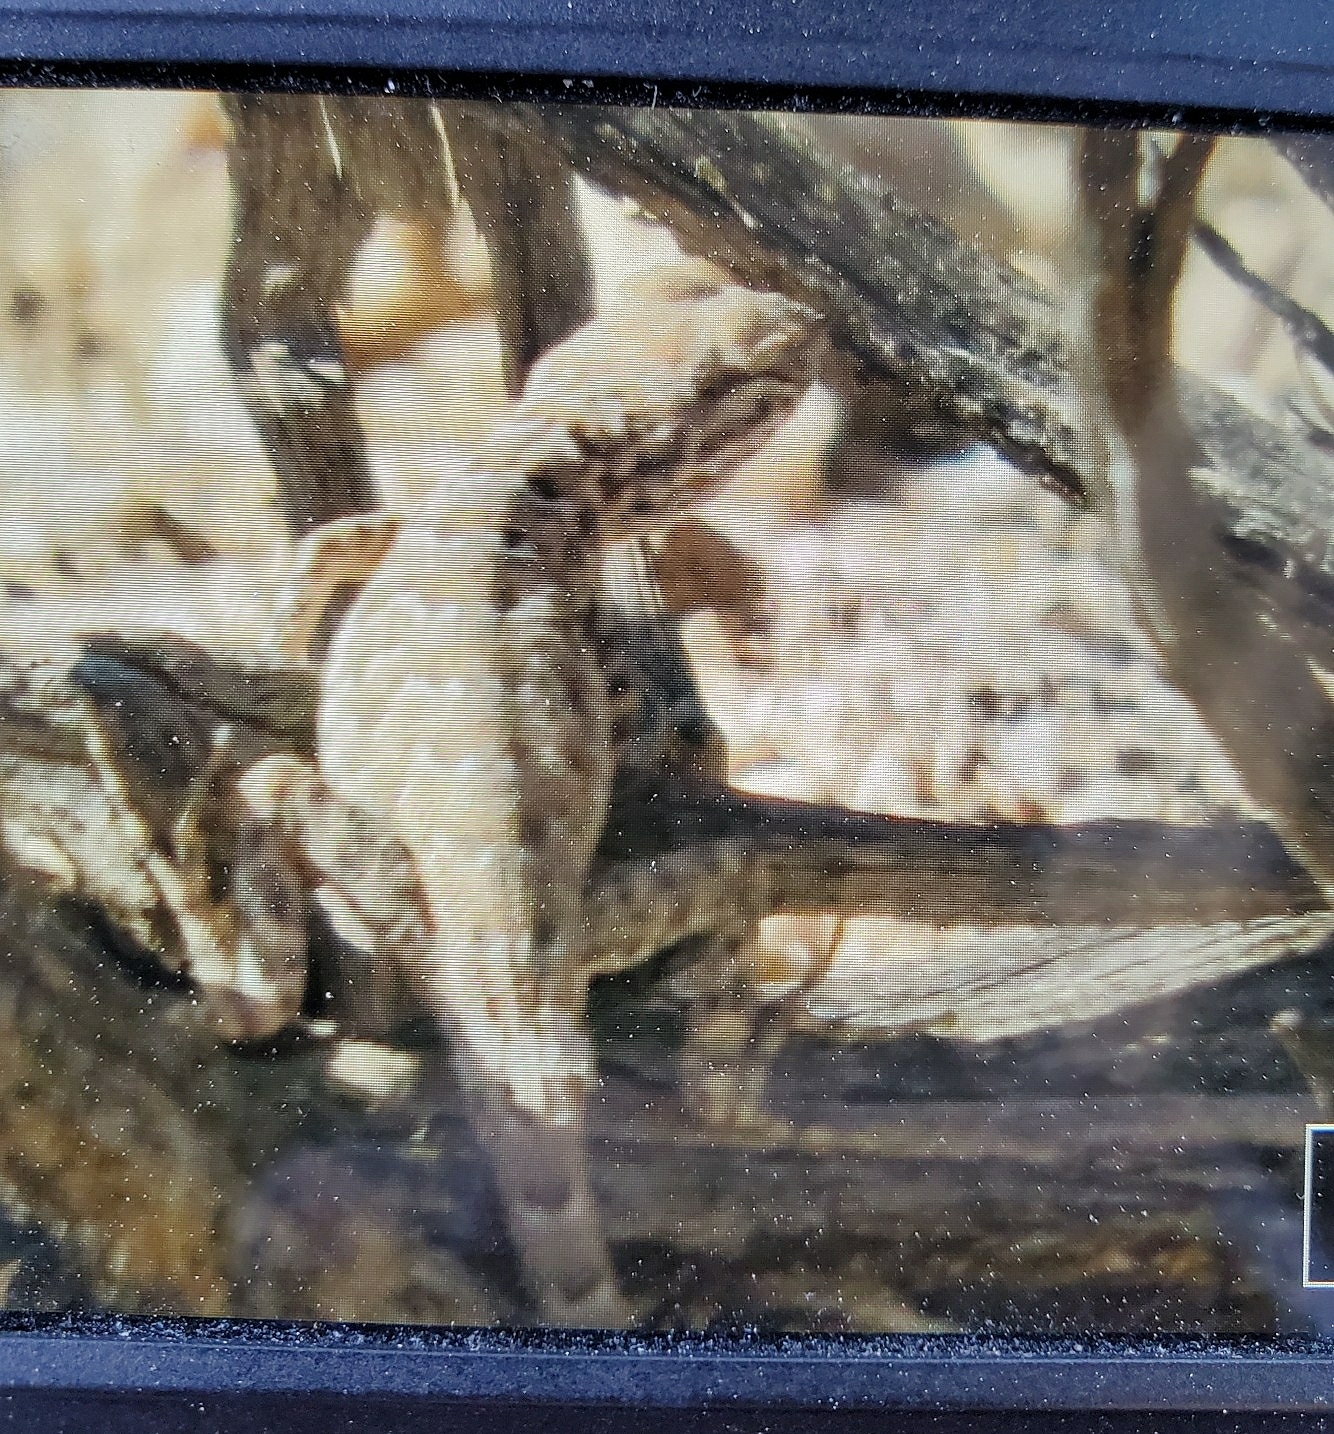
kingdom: Animalia
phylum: Chordata
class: Squamata
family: Phrynosomatidae
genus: Uta
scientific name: Uta stansburiana
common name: Side-blotched lizard
